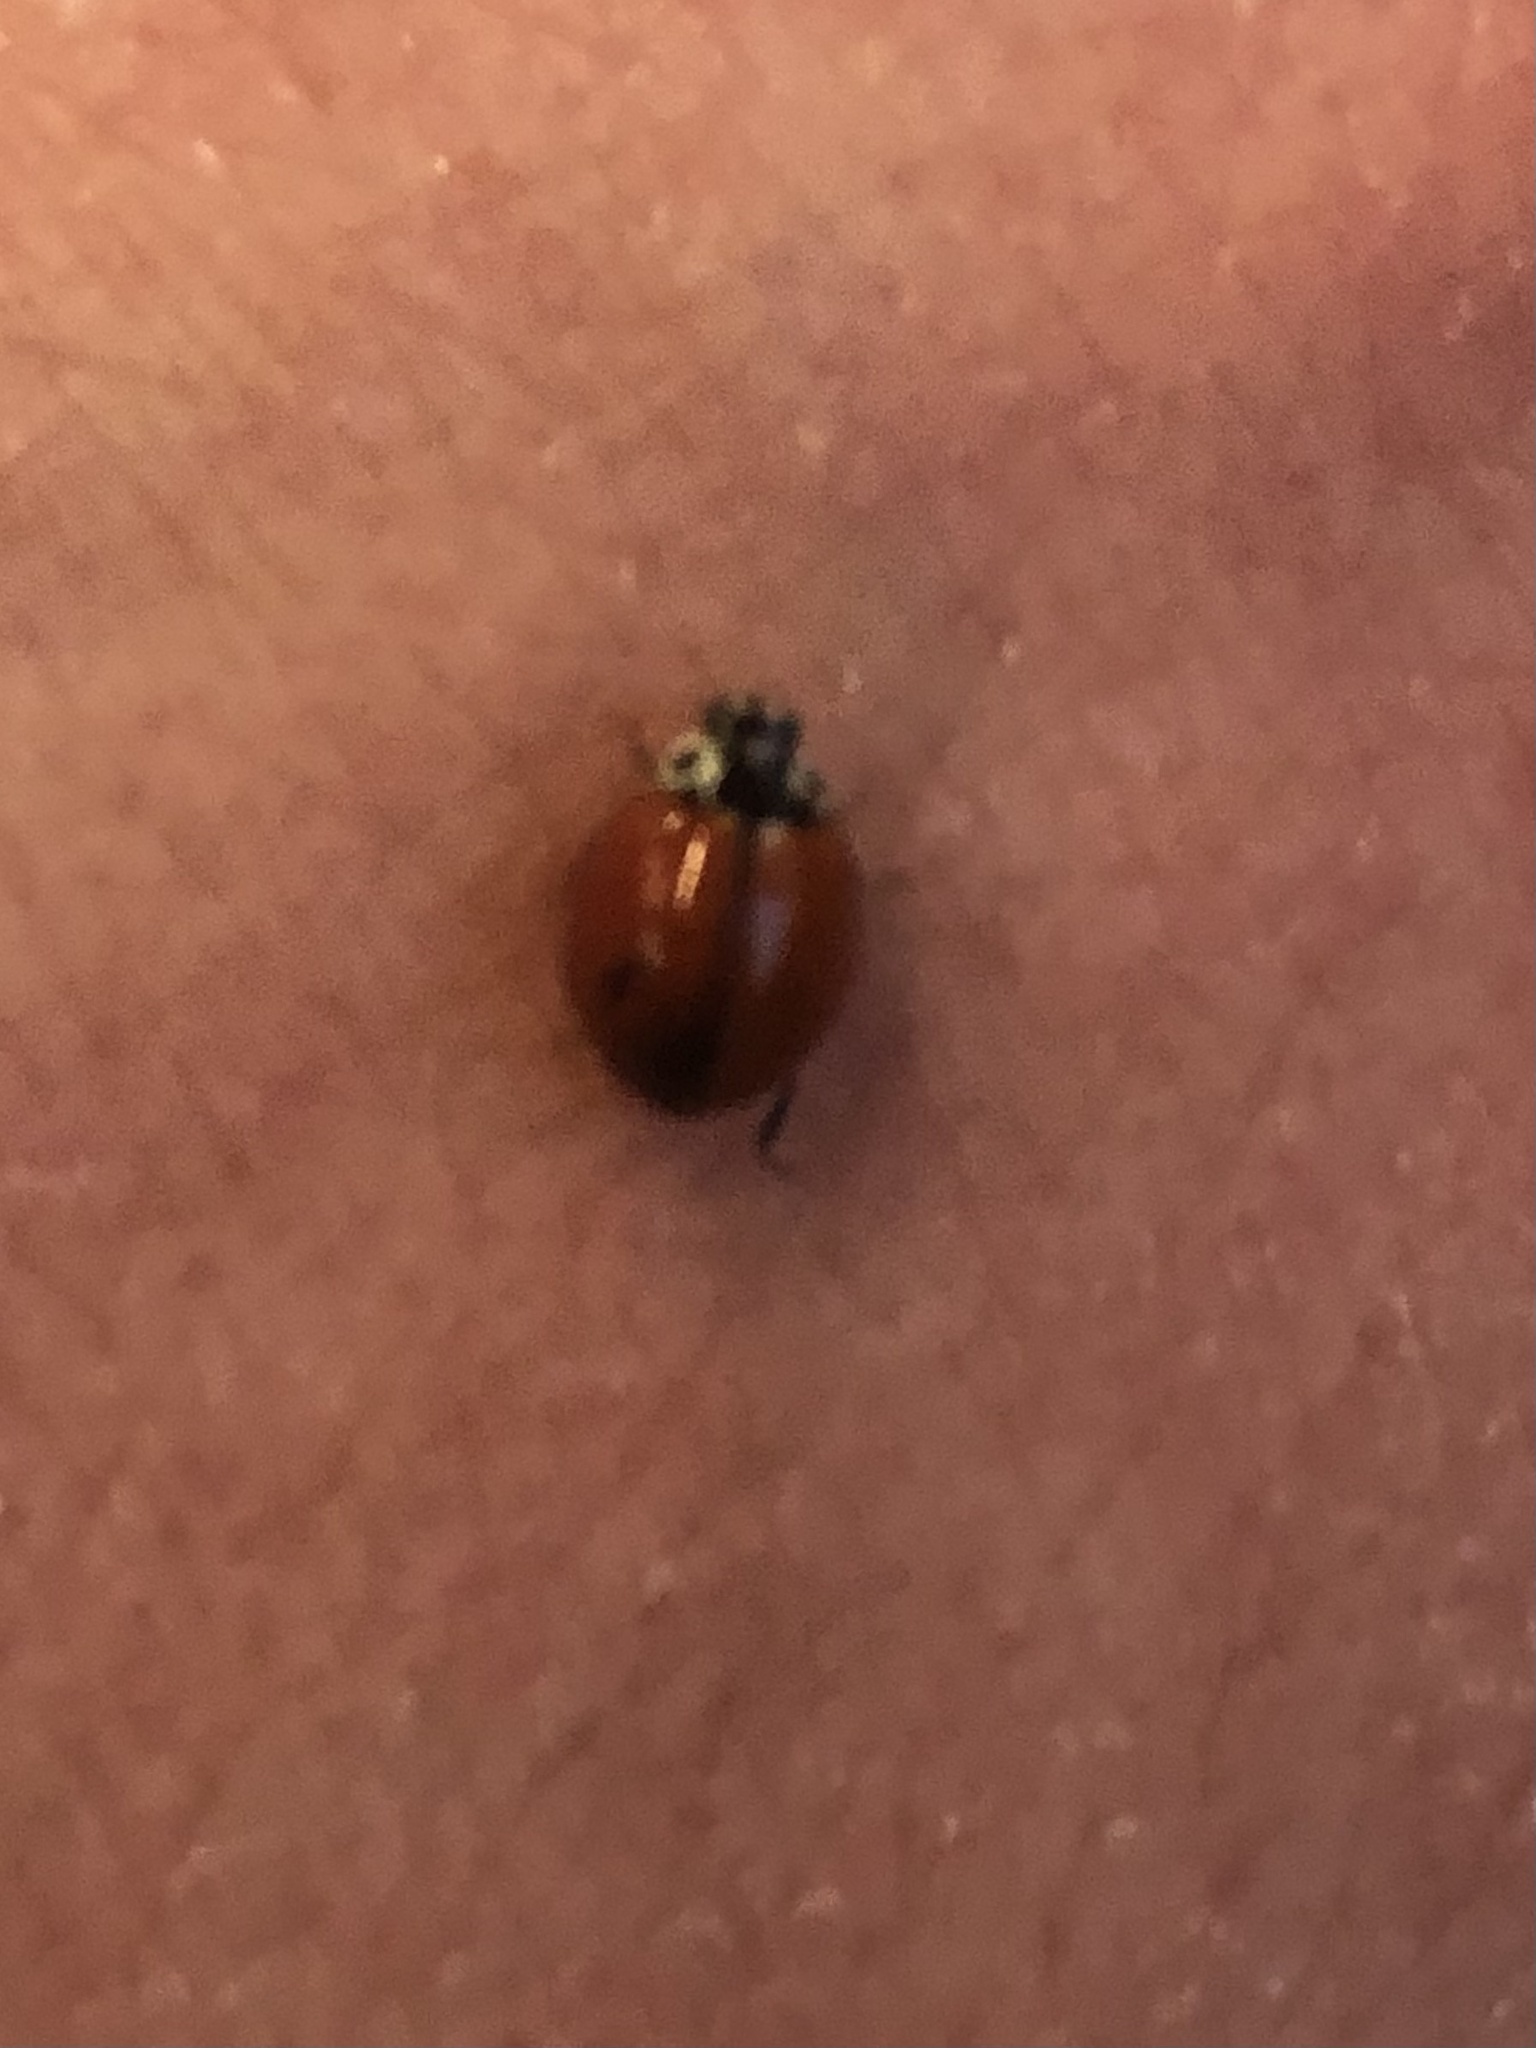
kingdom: Animalia
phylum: Arthropoda
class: Insecta
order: Coleoptera
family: Coccinellidae
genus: Cycloneda
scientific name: Cycloneda polita
